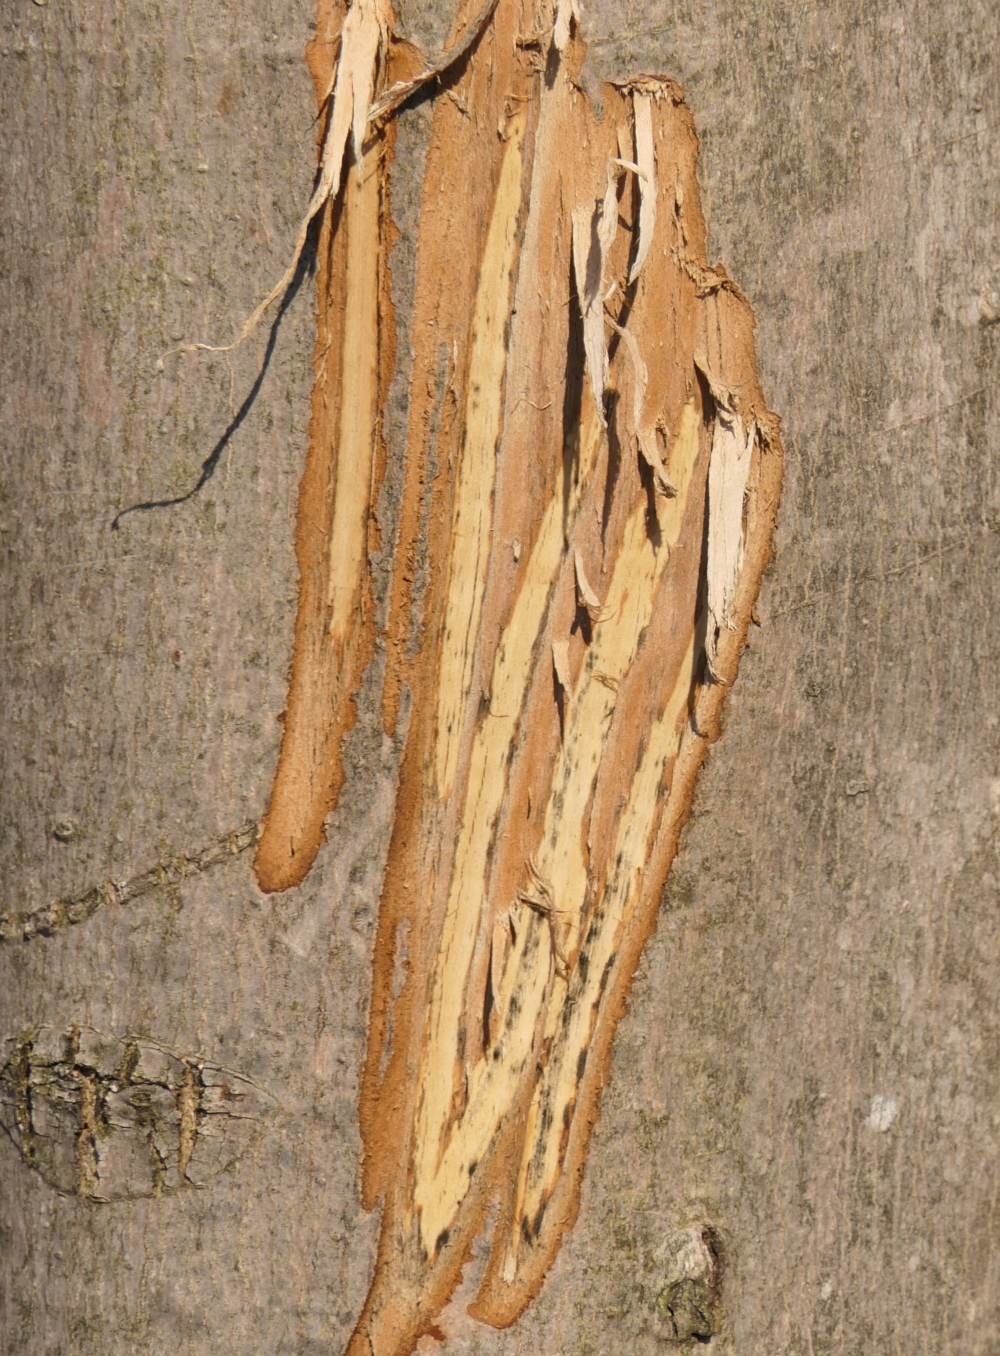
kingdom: Animalia
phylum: Chordata
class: Mammalia
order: Artiodactyla
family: Cervidae
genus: Alces
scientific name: Alces alces
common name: Moose
